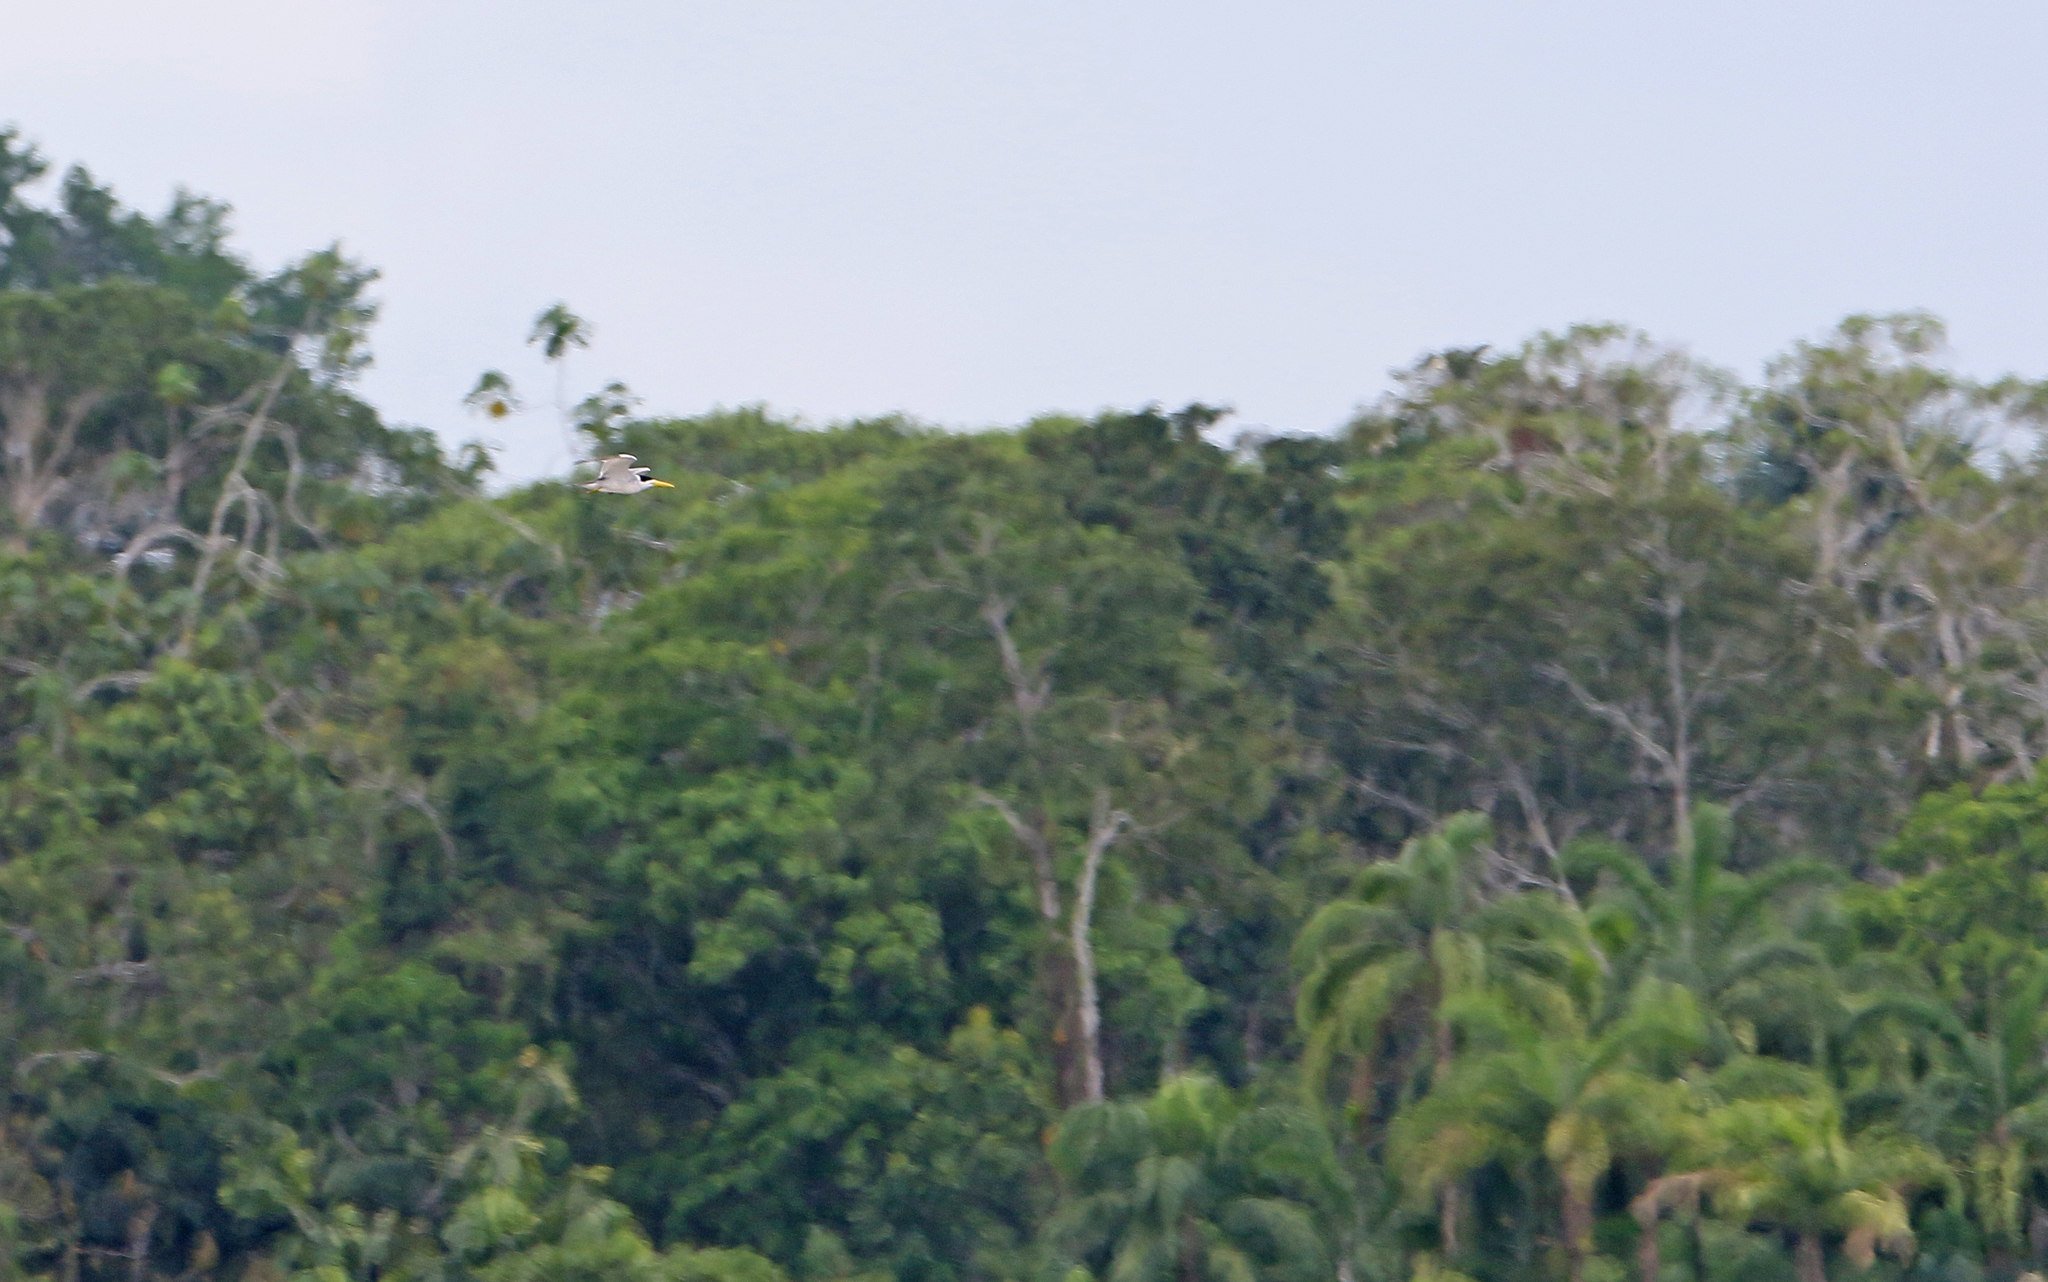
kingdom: Animalia
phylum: Chordata
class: Aves
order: Charadriiformes
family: Laridae
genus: Phaetusa
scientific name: Phaetusa simplex
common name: Large-billed tern
